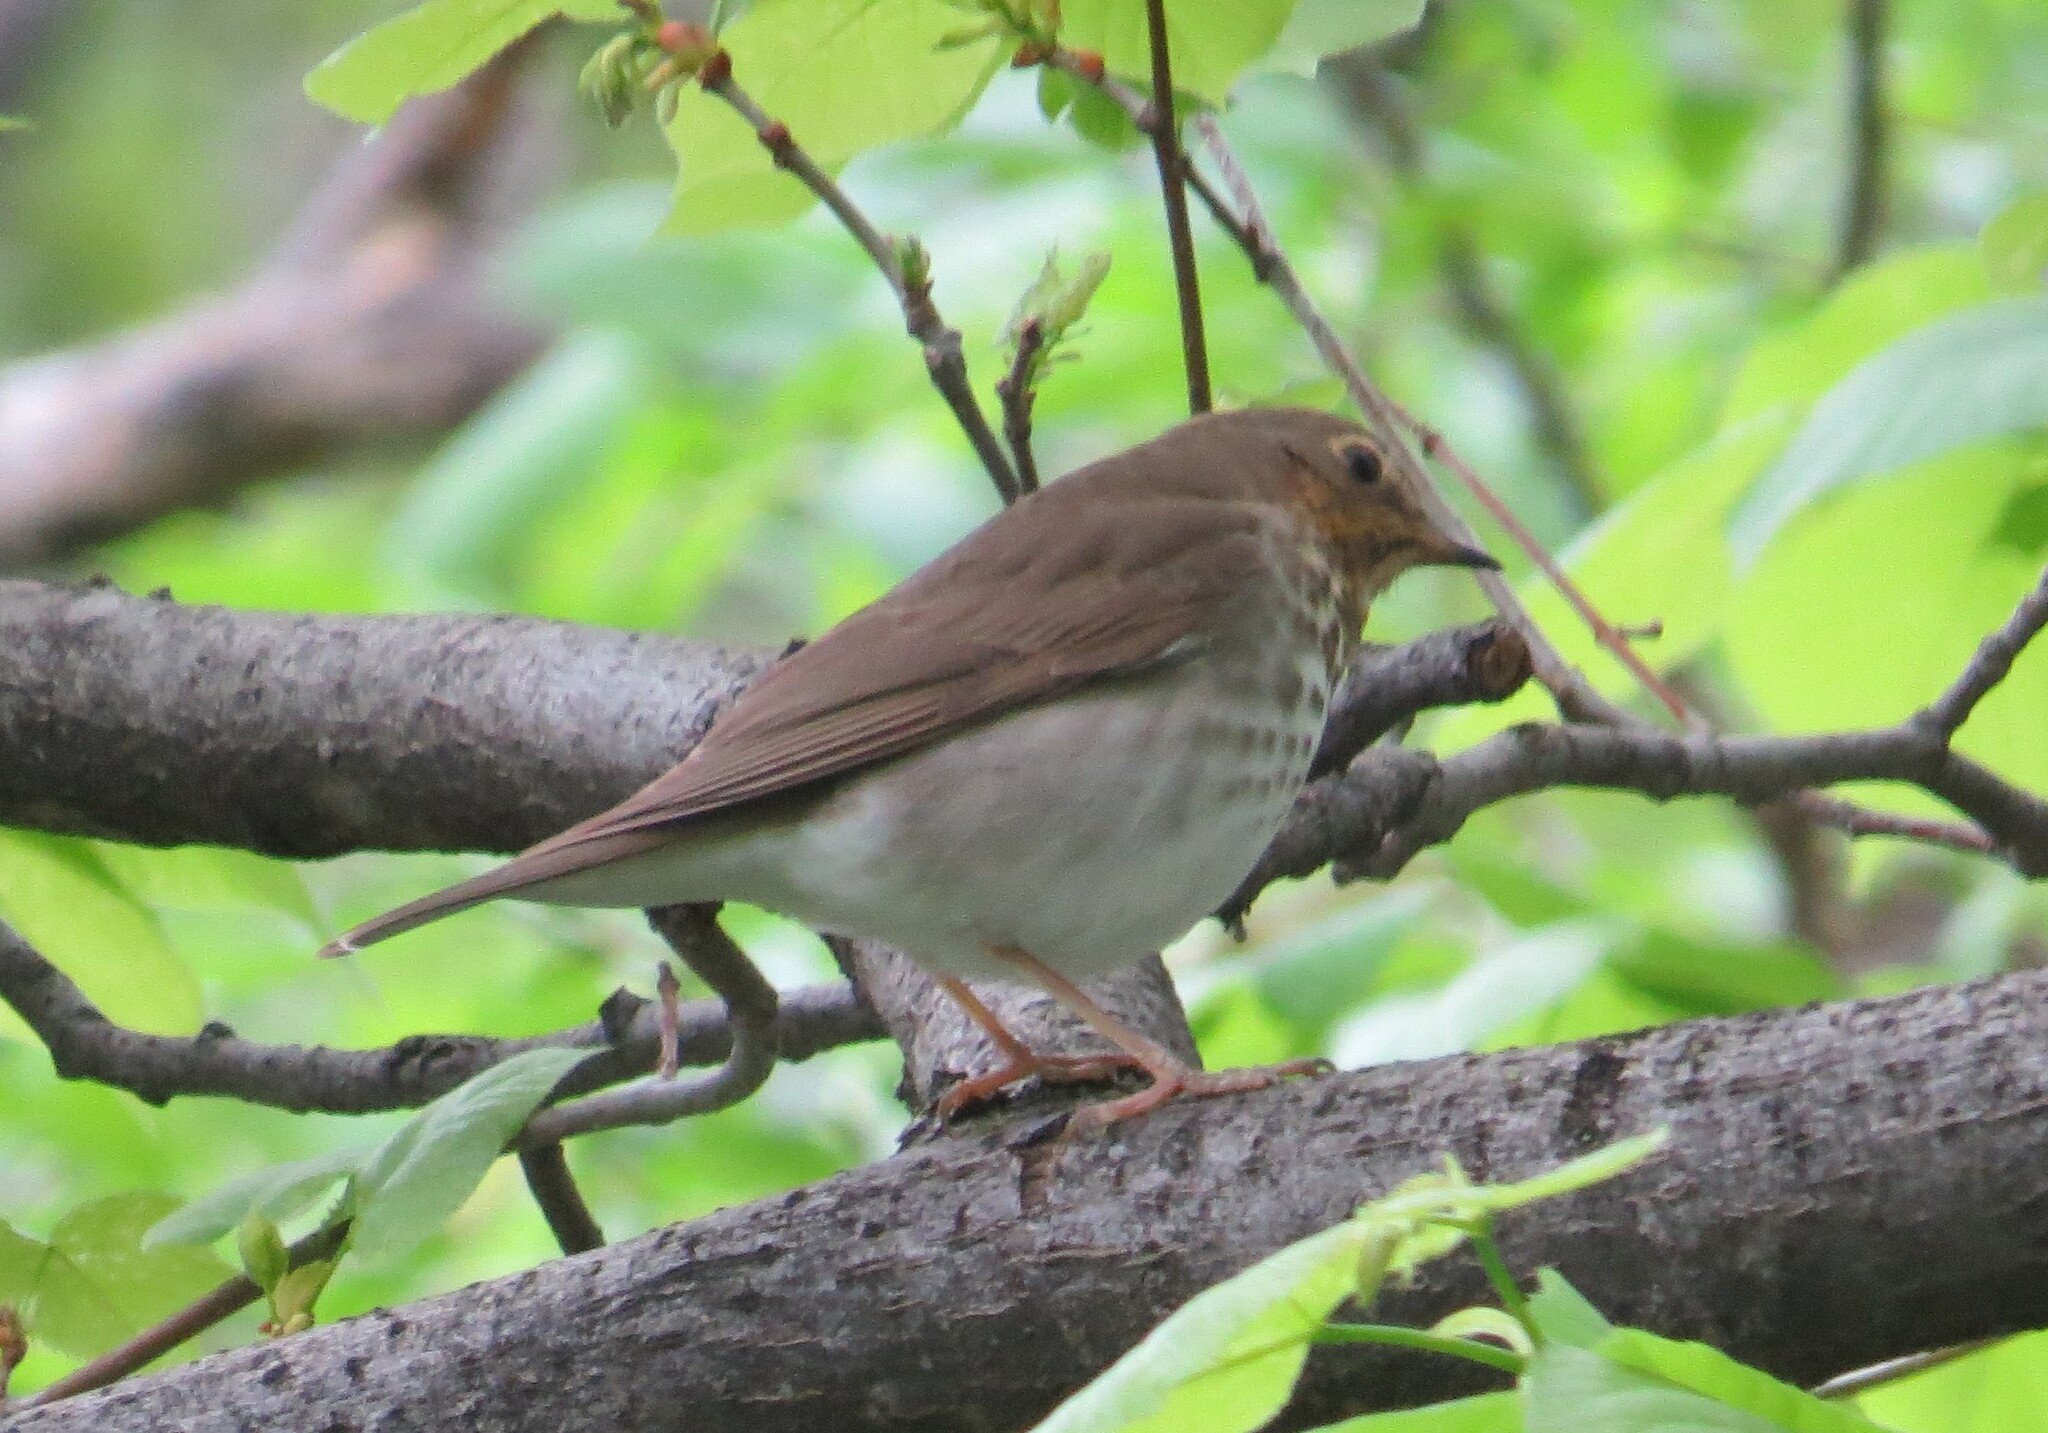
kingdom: Animalia
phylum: Chordata
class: Aves
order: Passeriformes
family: Turdidae
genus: Catharus
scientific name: Catharus ustulatus
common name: Swainson's thrush
